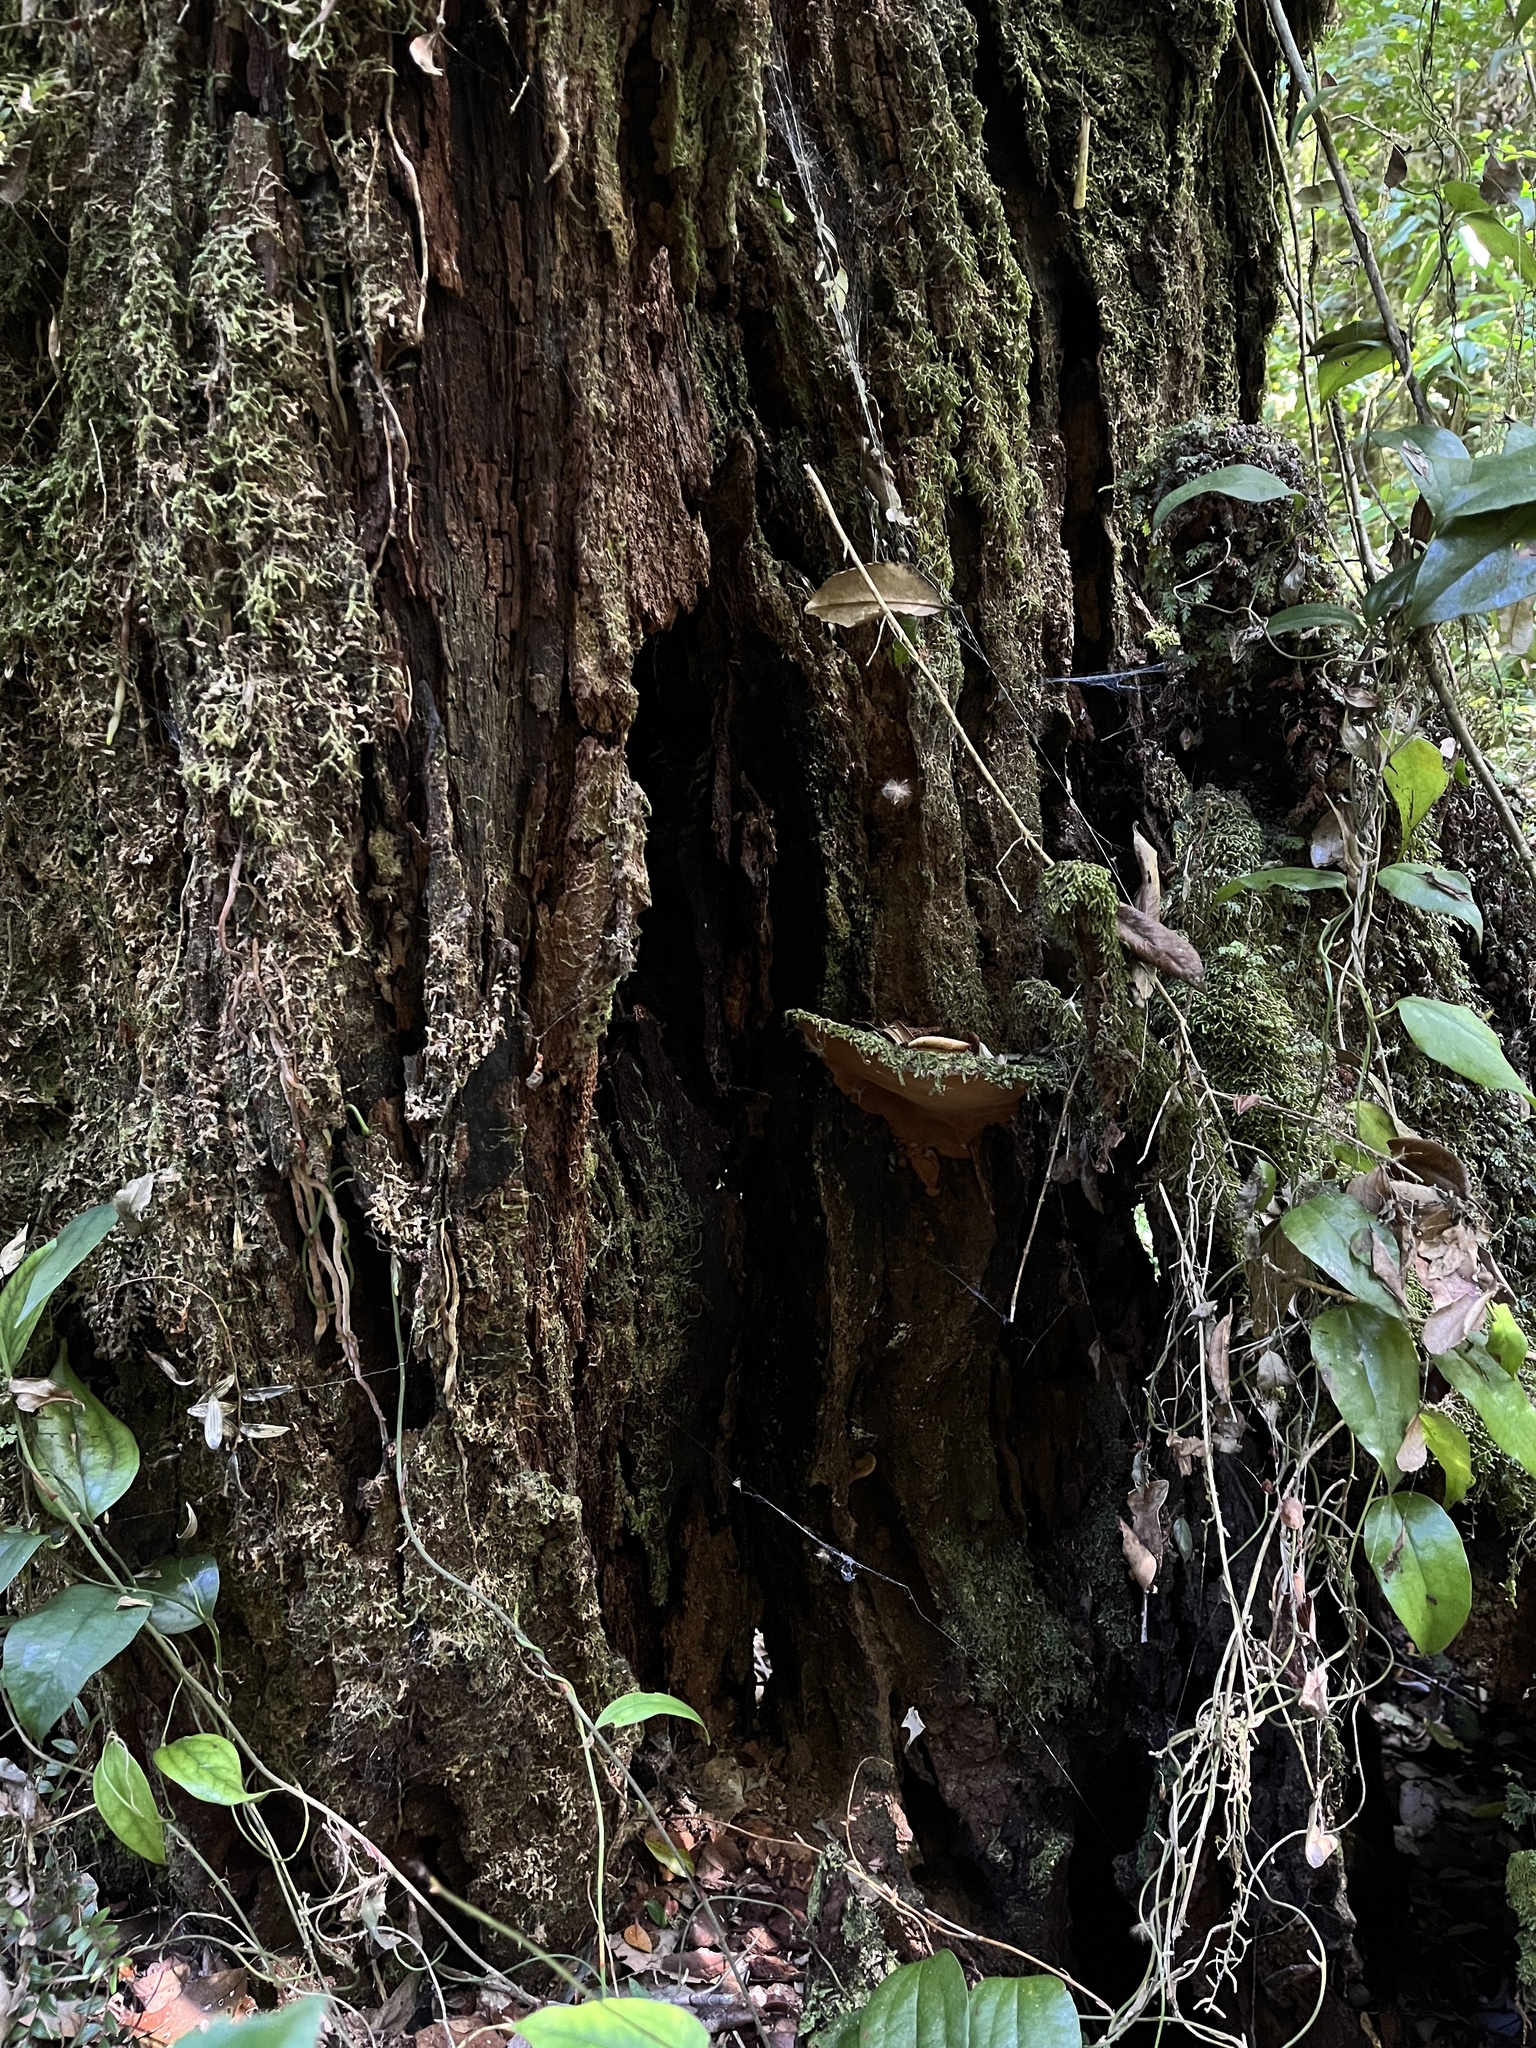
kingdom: Fungi
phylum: Basidiomycota
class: Agaricomycetes
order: Hymenochaetales
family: Hymenochaetaceae
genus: Fuscoporia
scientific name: Fuscoporia senex
